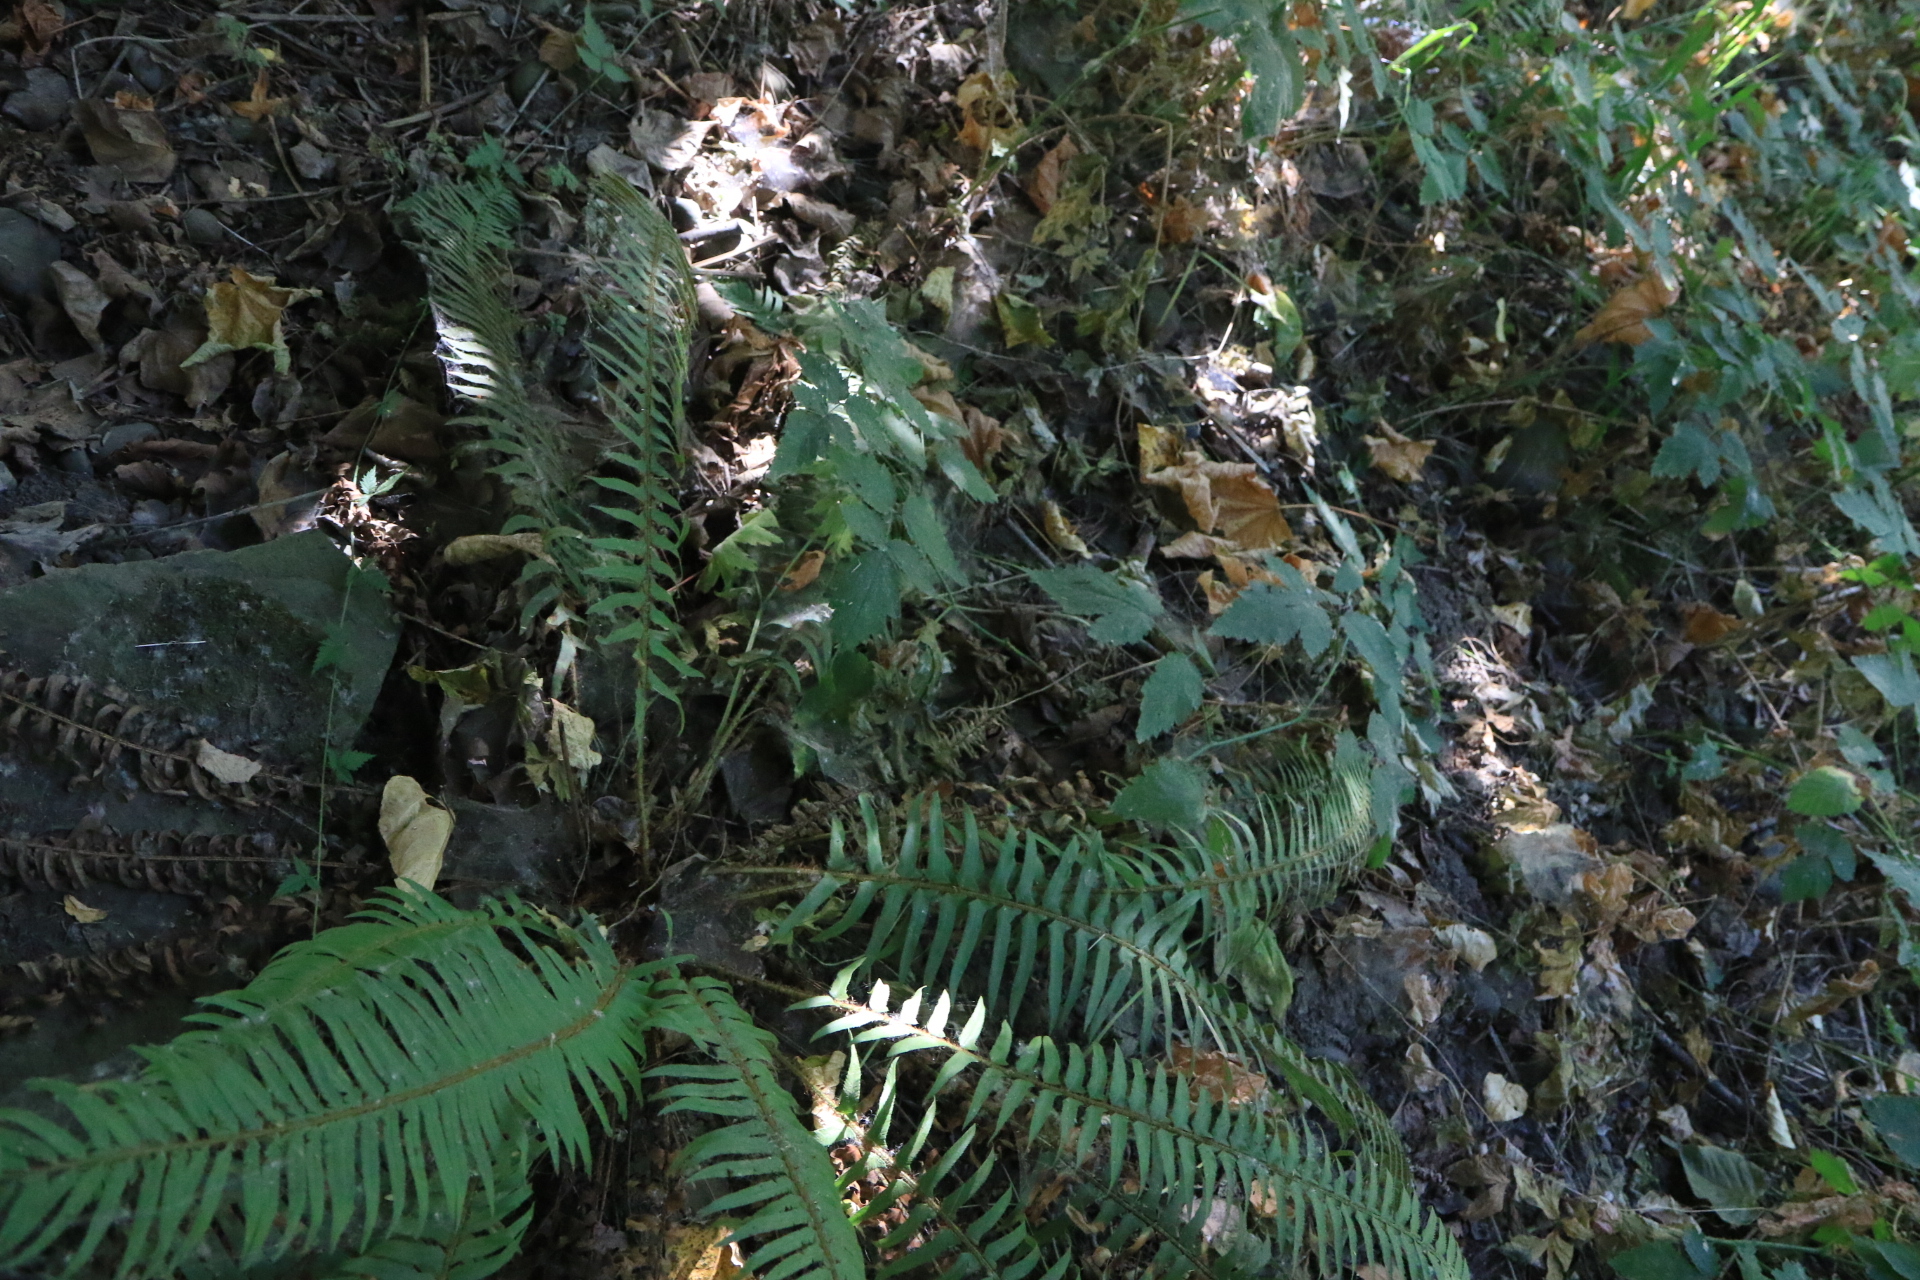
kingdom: Plantae
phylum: Tracheophyta
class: Polypodiopsida
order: Polypodiales
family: Dryopteridaceae
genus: Polystichum
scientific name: Polystichum munitum
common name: Western sword-fern
